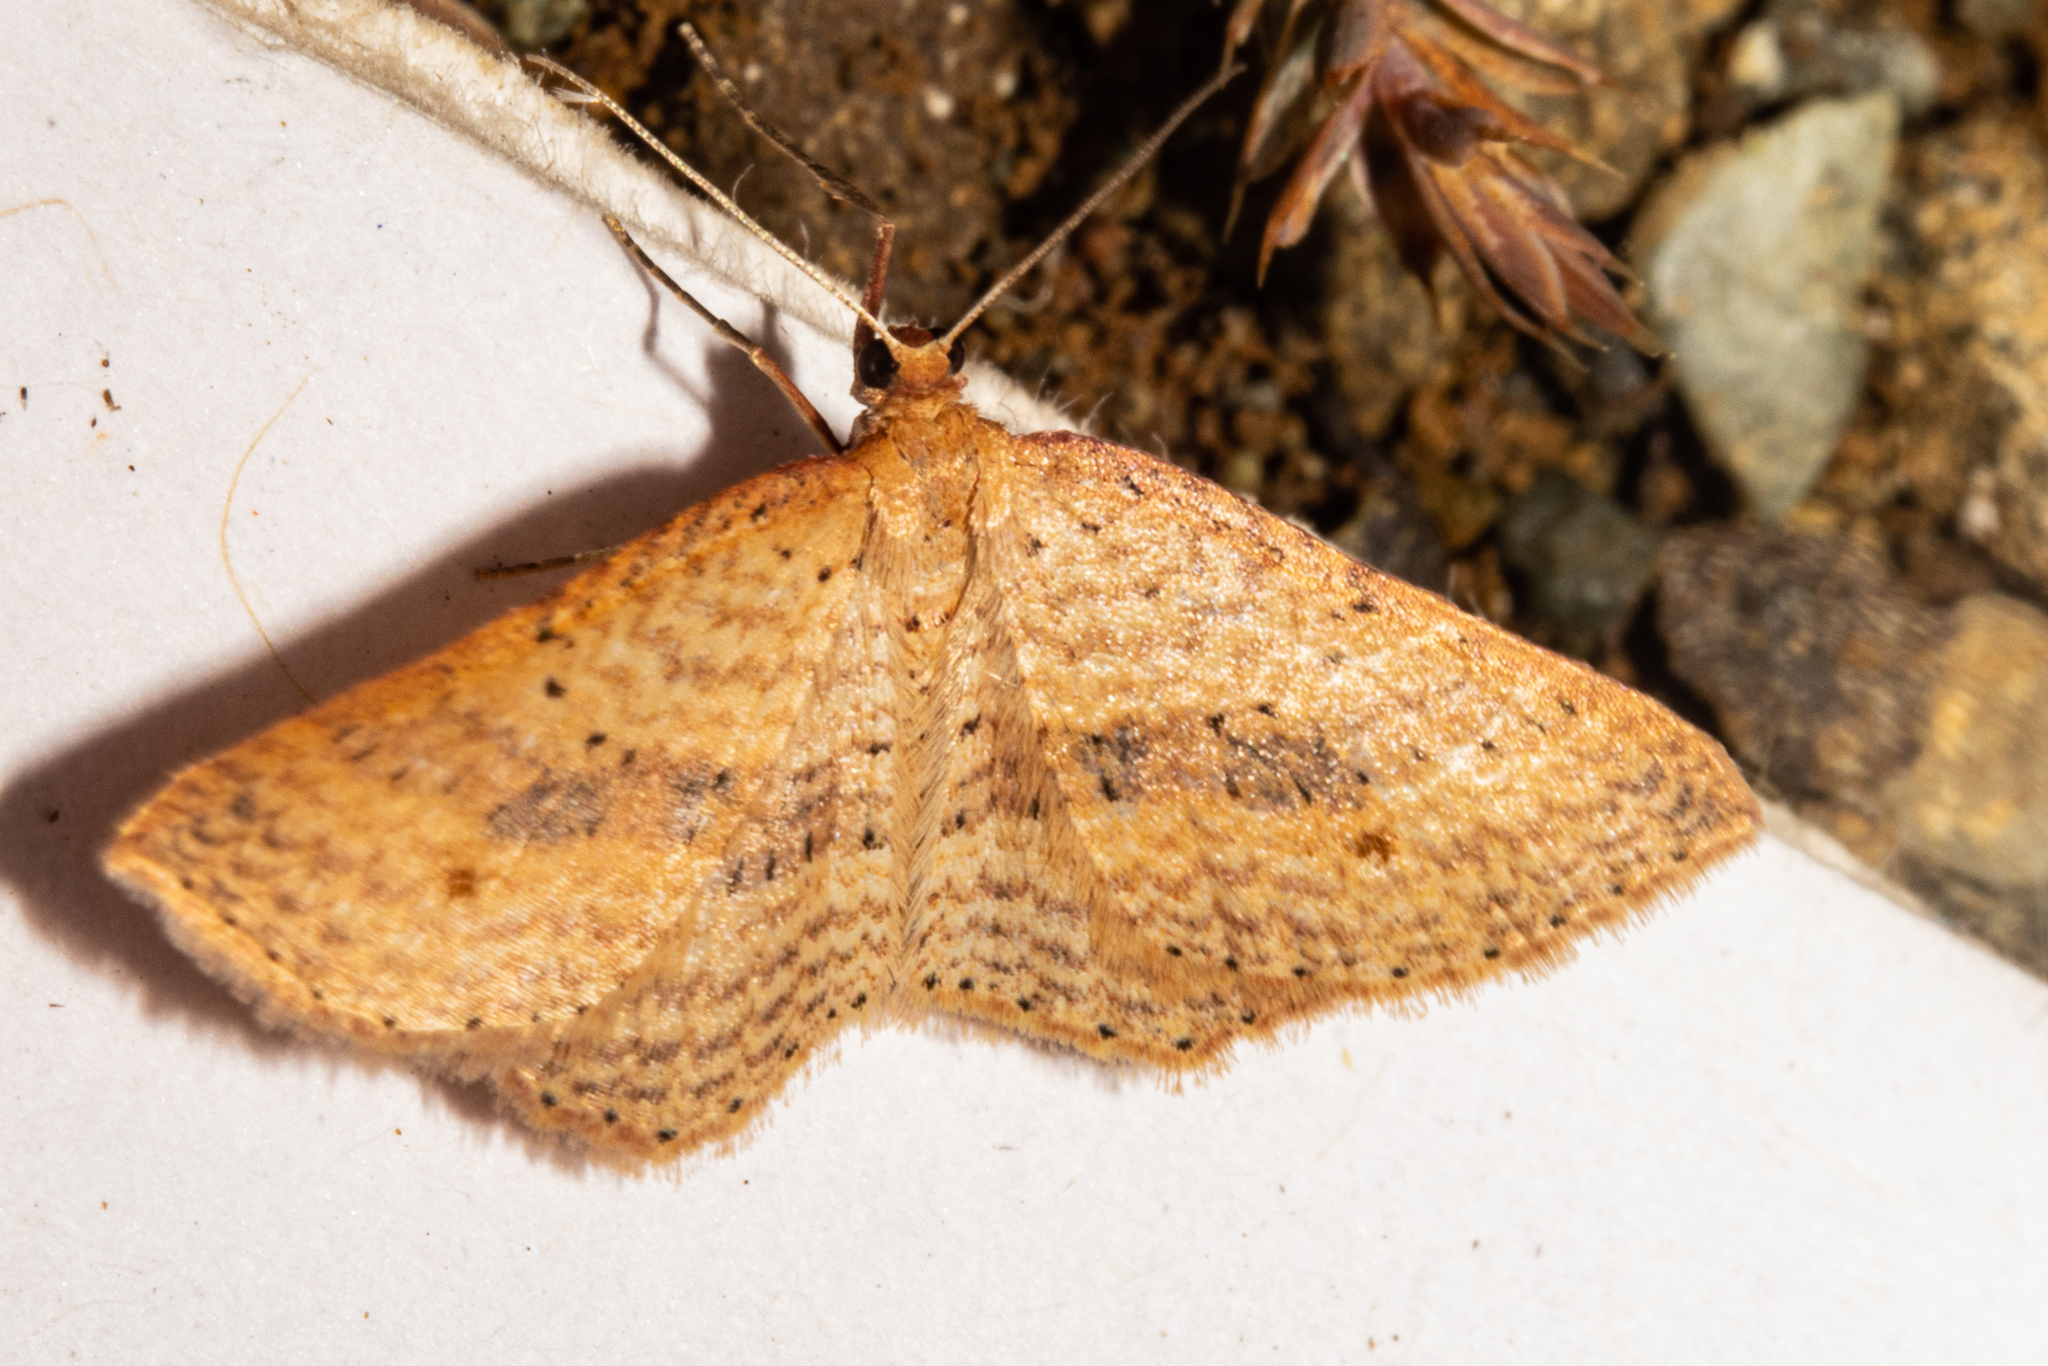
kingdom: Animalia
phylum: Arthropoda
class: Insecta
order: Lepidoptera
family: Geometridae
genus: Epicyme
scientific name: Epicyme rubropunctaria
